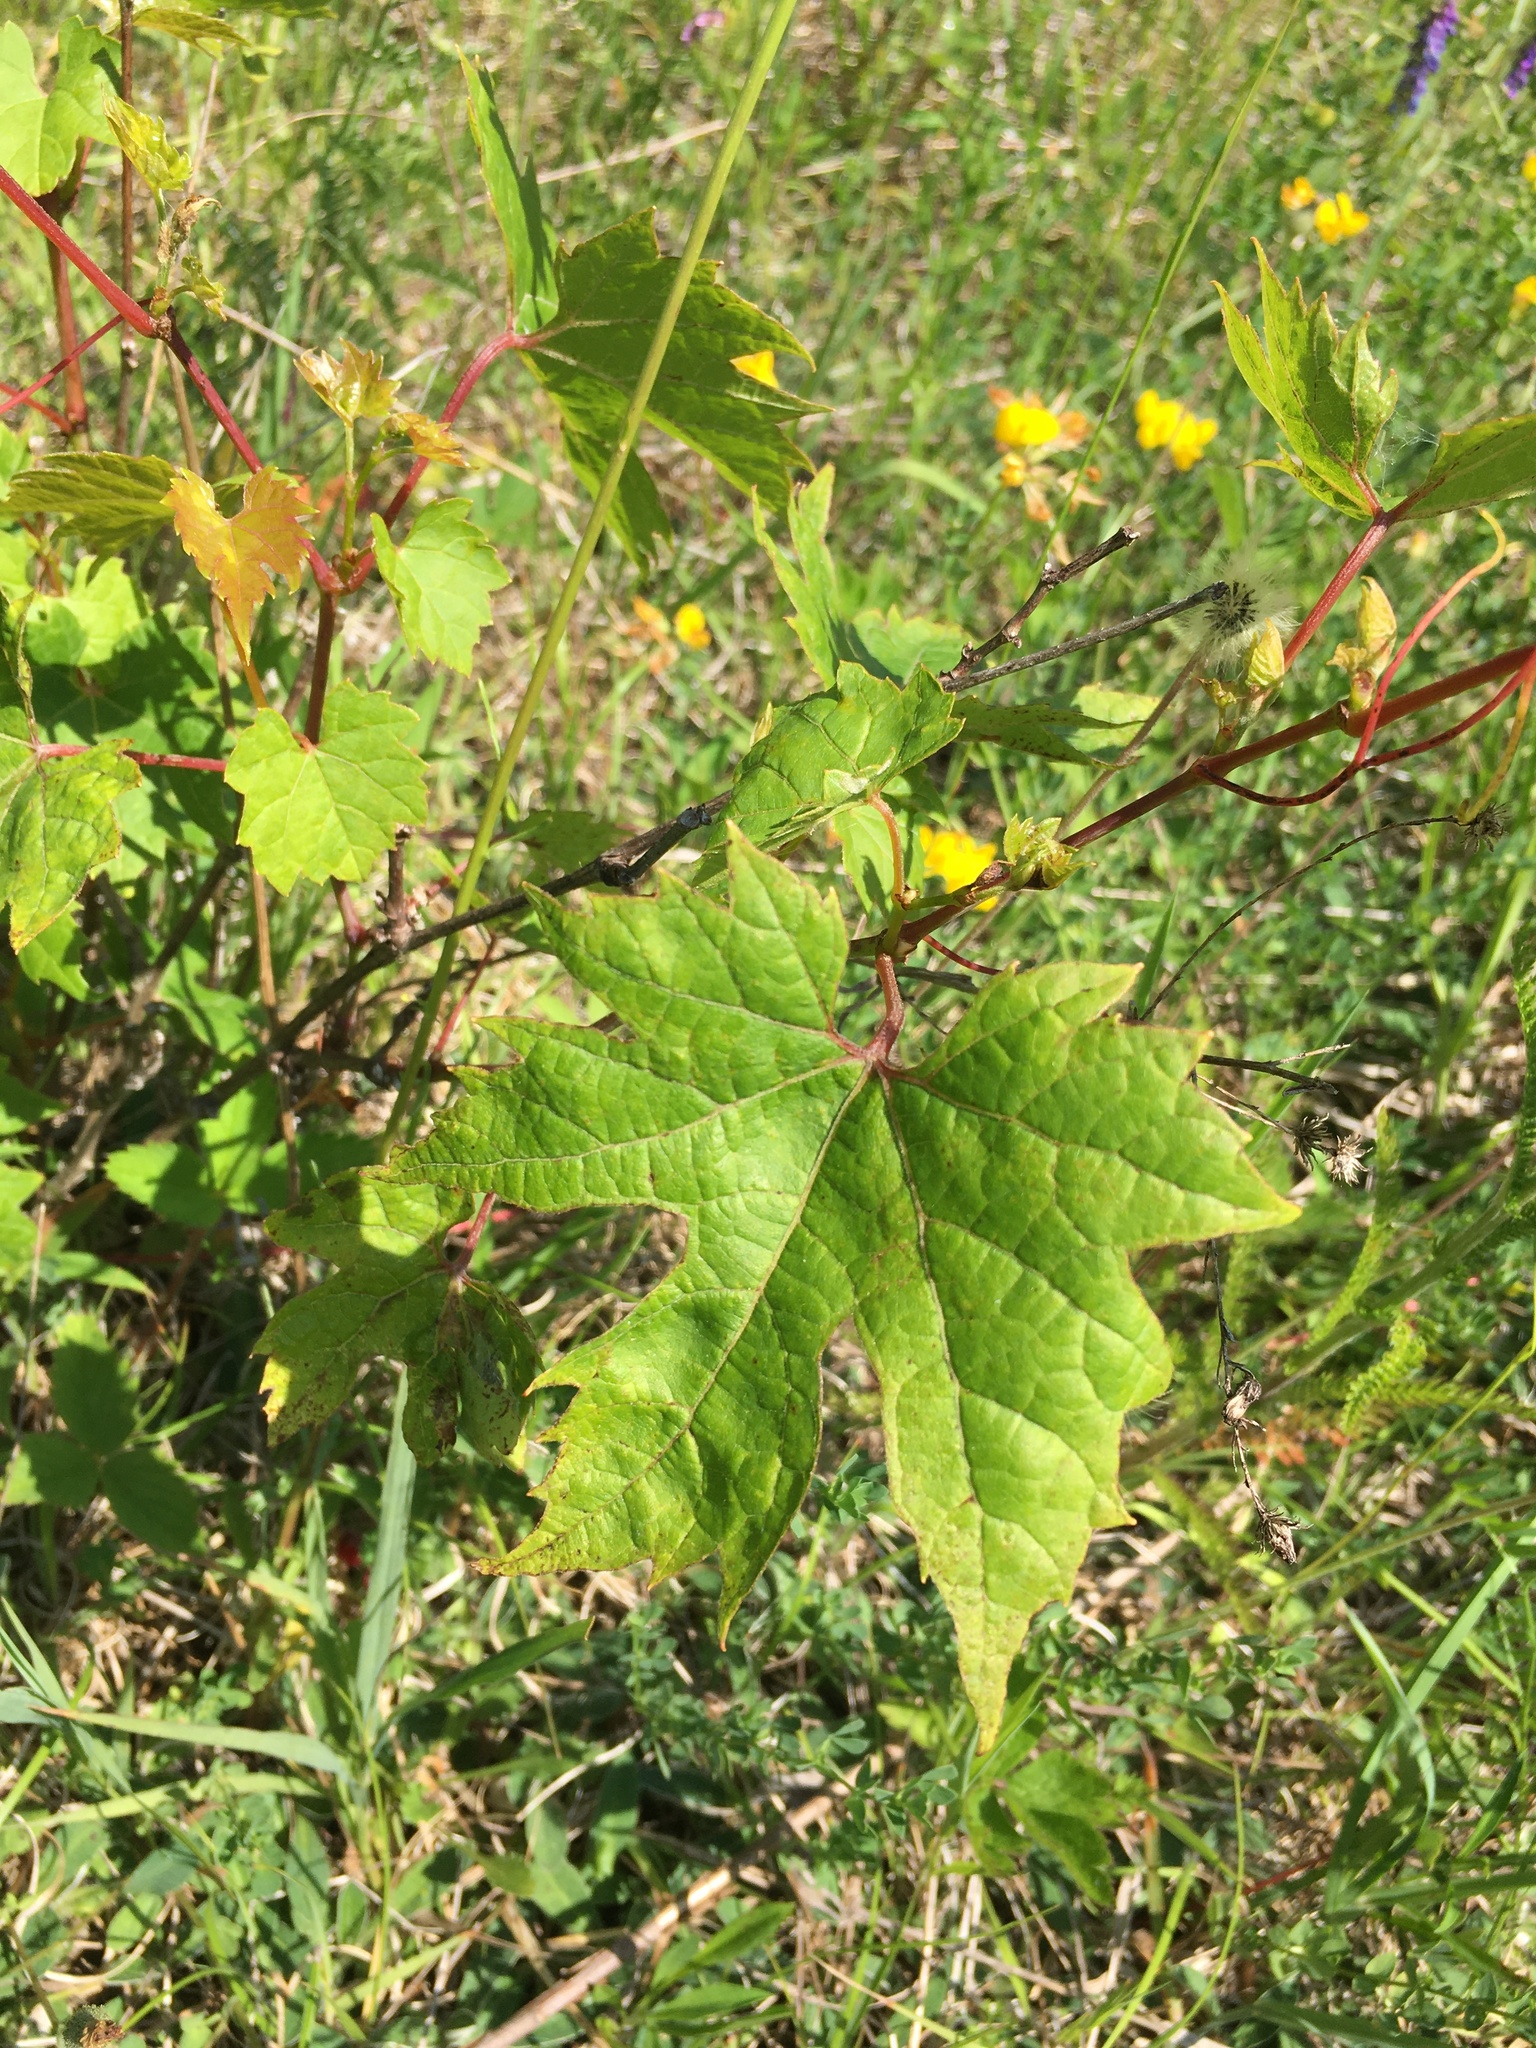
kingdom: Plantae
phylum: Tracheophyta
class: Magnoliopsida
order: Vitales
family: Vitaceae
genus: Vitis
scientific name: Vitis riparia
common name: Frost grape
